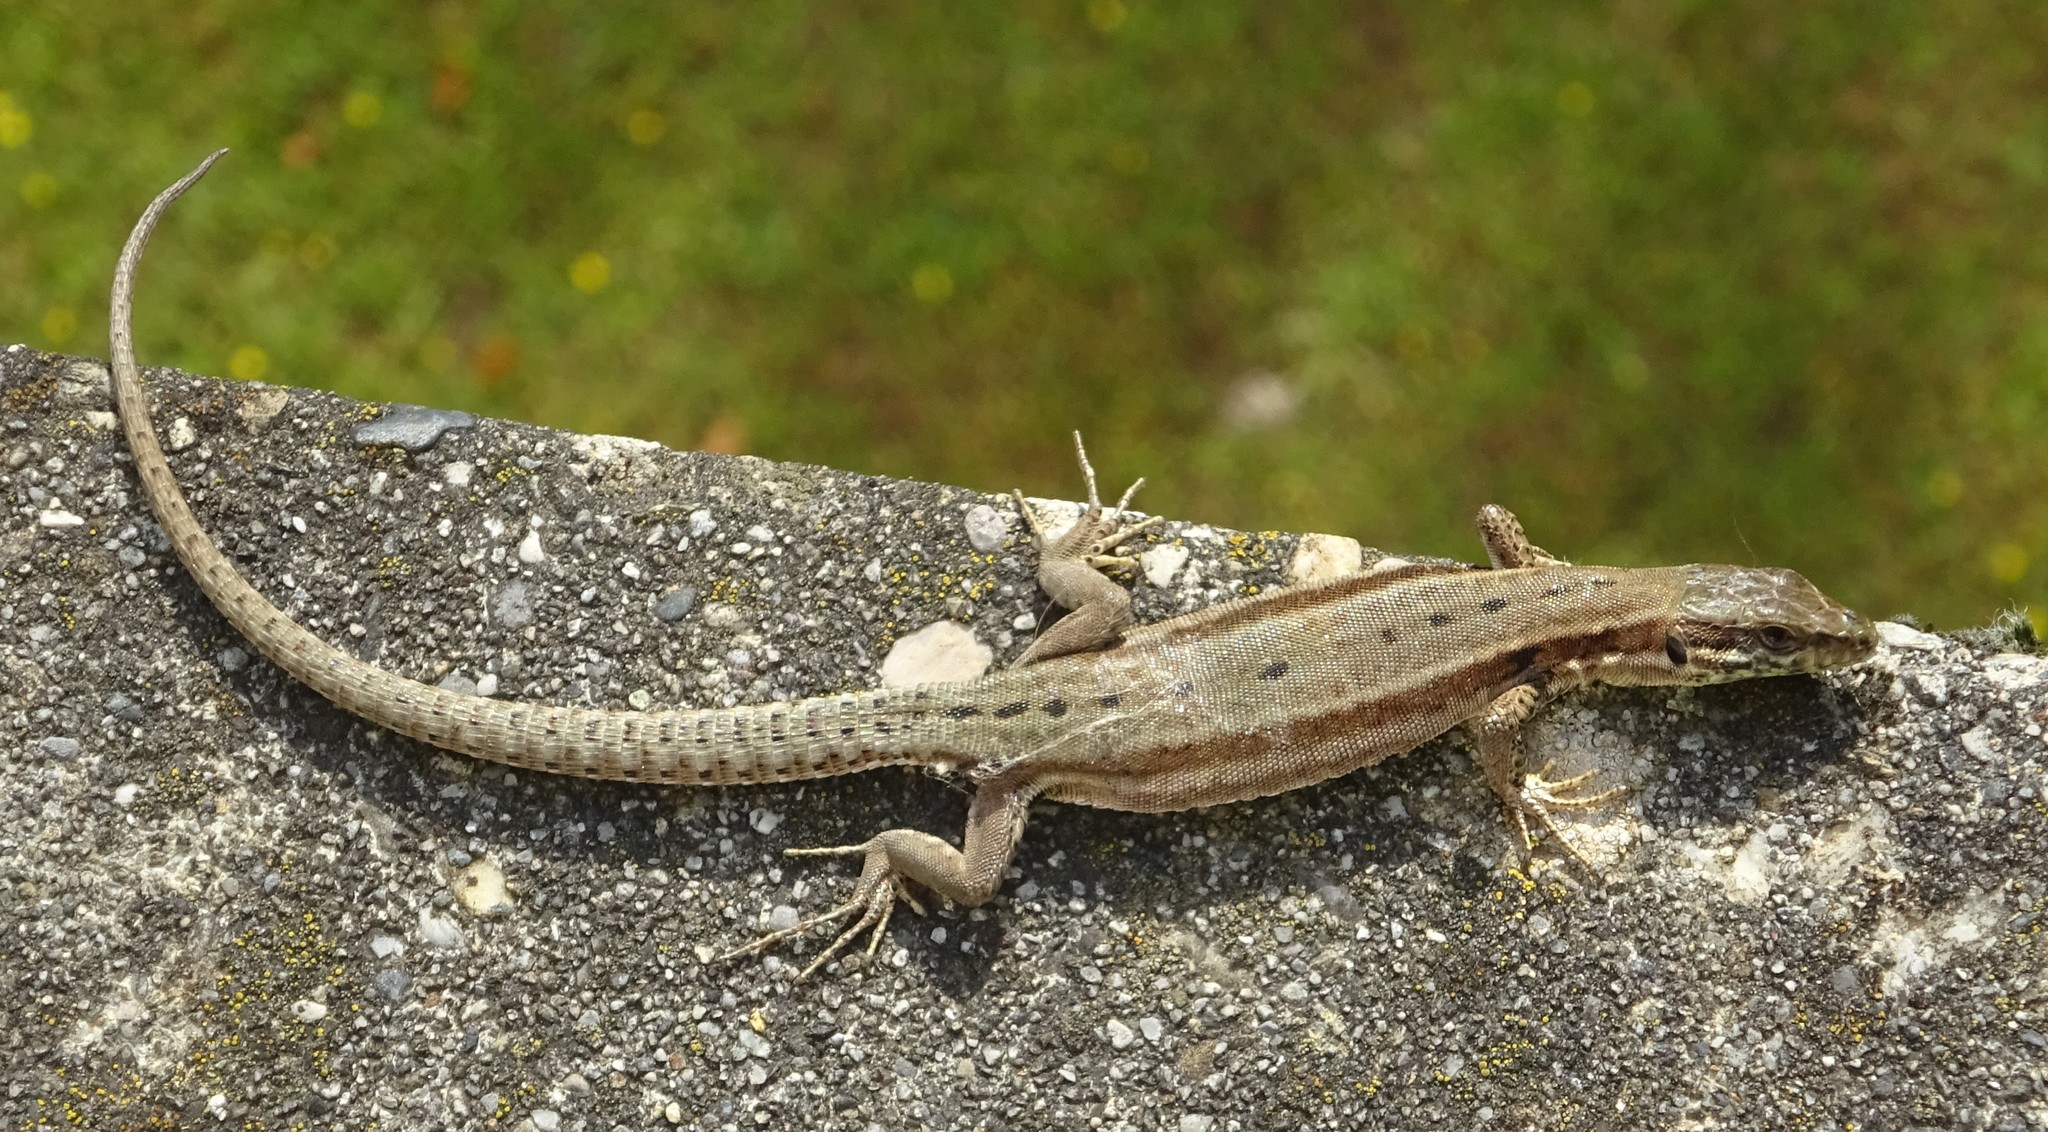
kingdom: Animalia
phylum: Chordata
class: Squamata
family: Lacertidae
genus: Podarcis
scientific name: Podarcis muralis
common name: Common wall lizard
